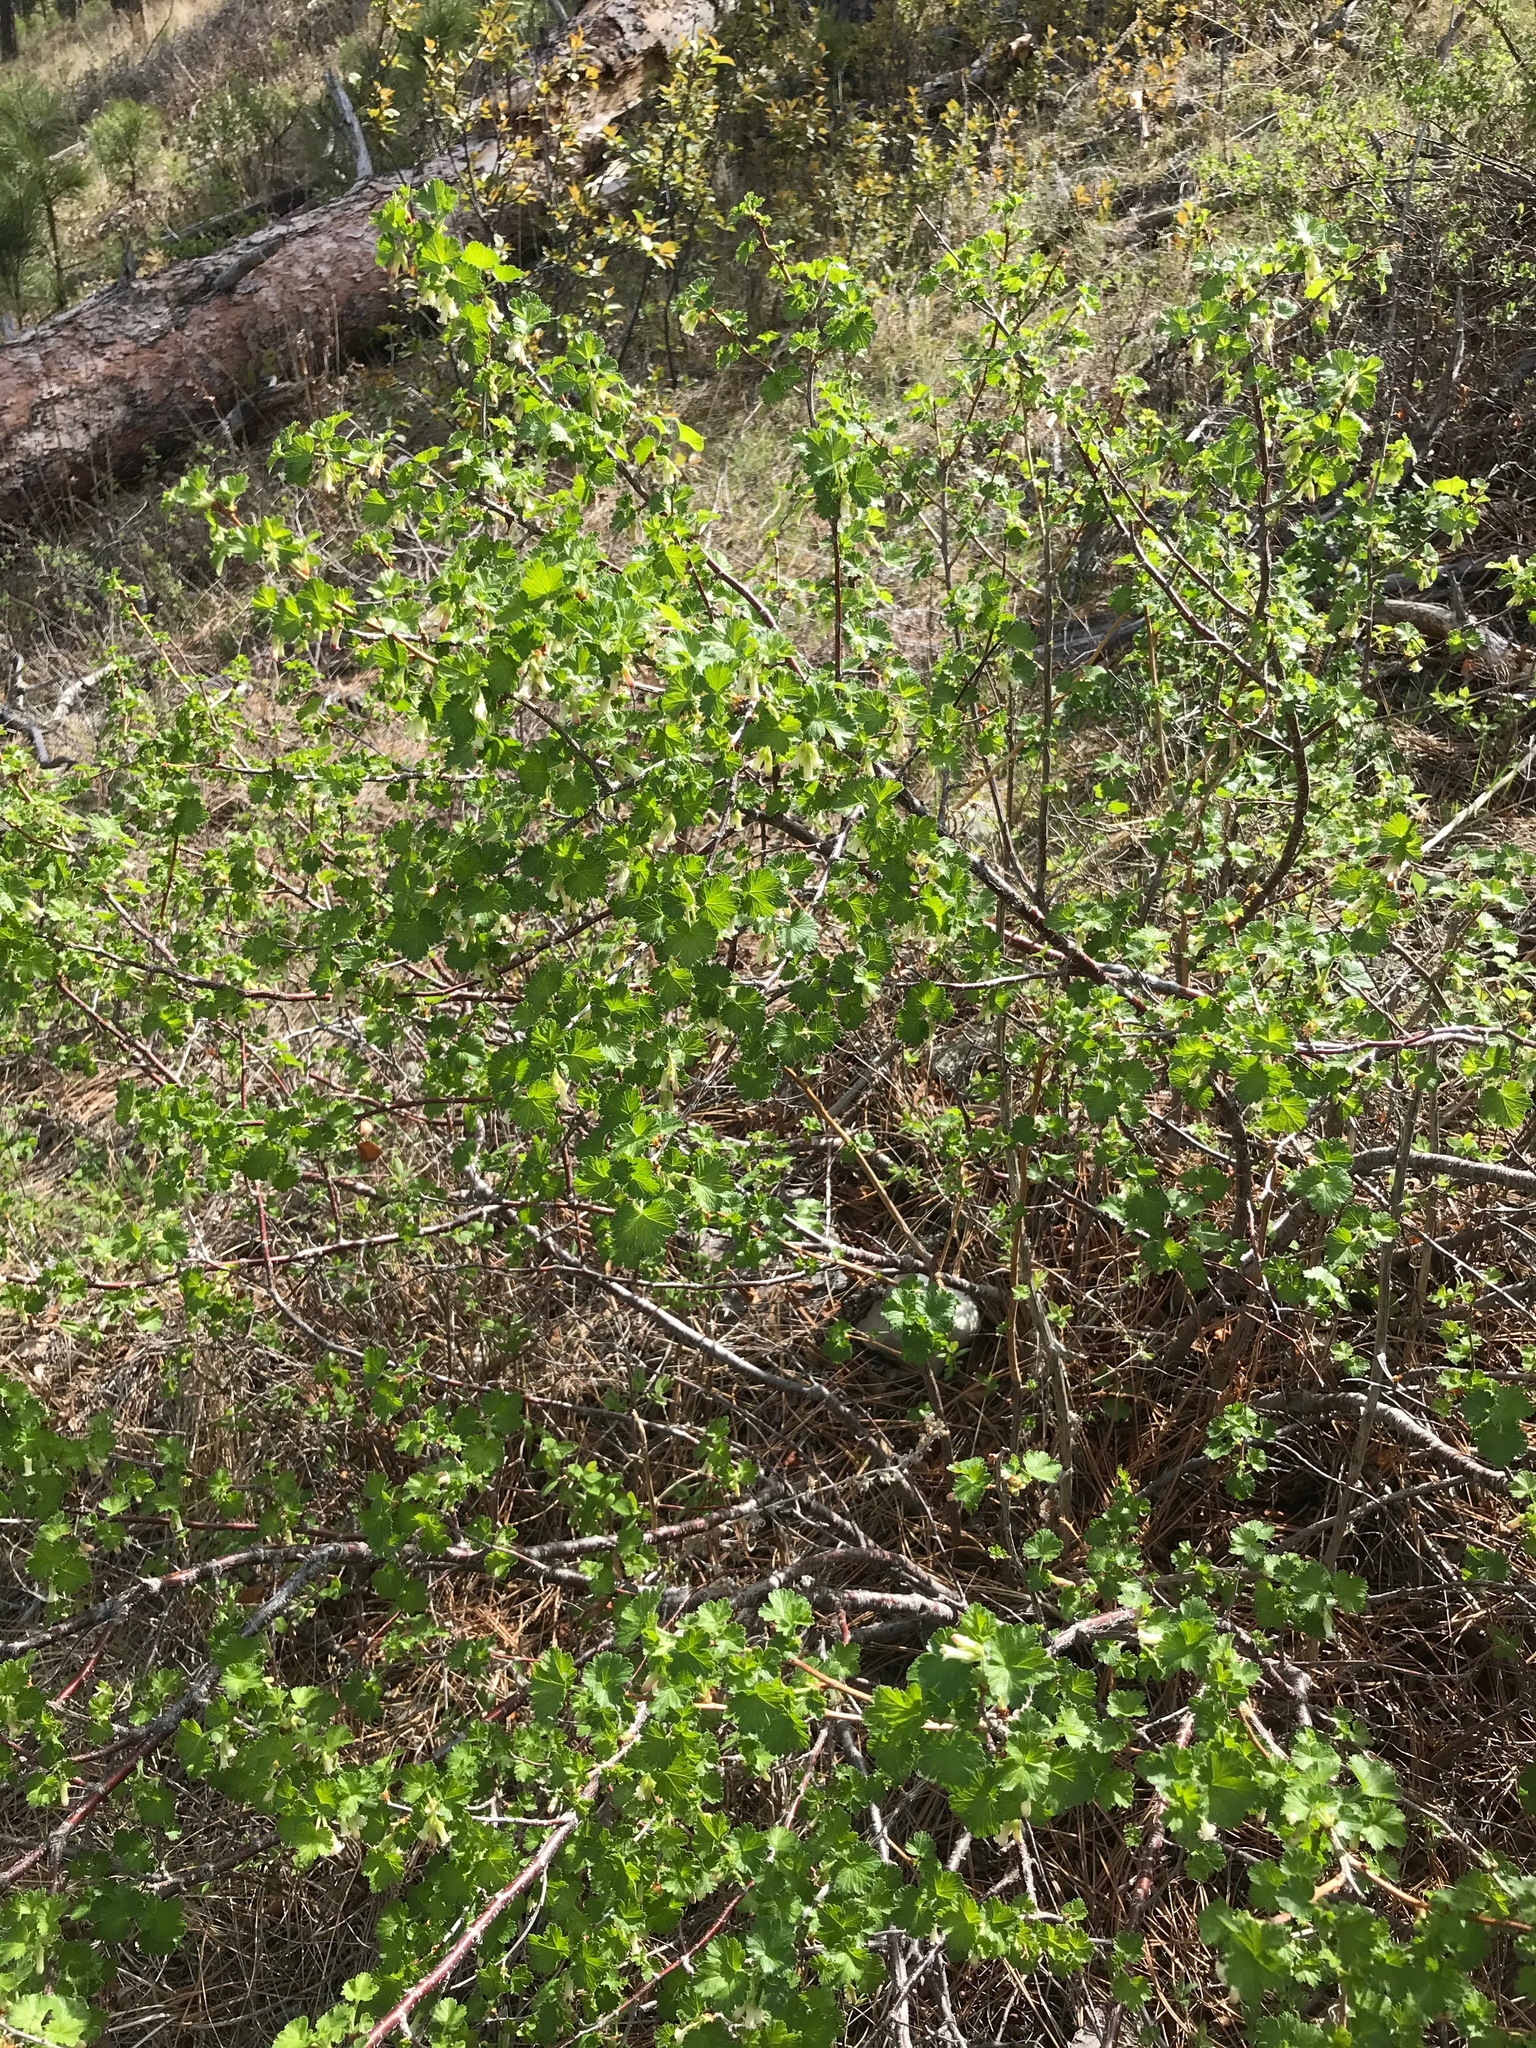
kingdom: Plantae
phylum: Tracheophyta
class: Magnoliopsida
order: Saxifragales
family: Grossulariaceae
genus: Ribes
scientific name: Ribes cereum
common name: Wax currant
